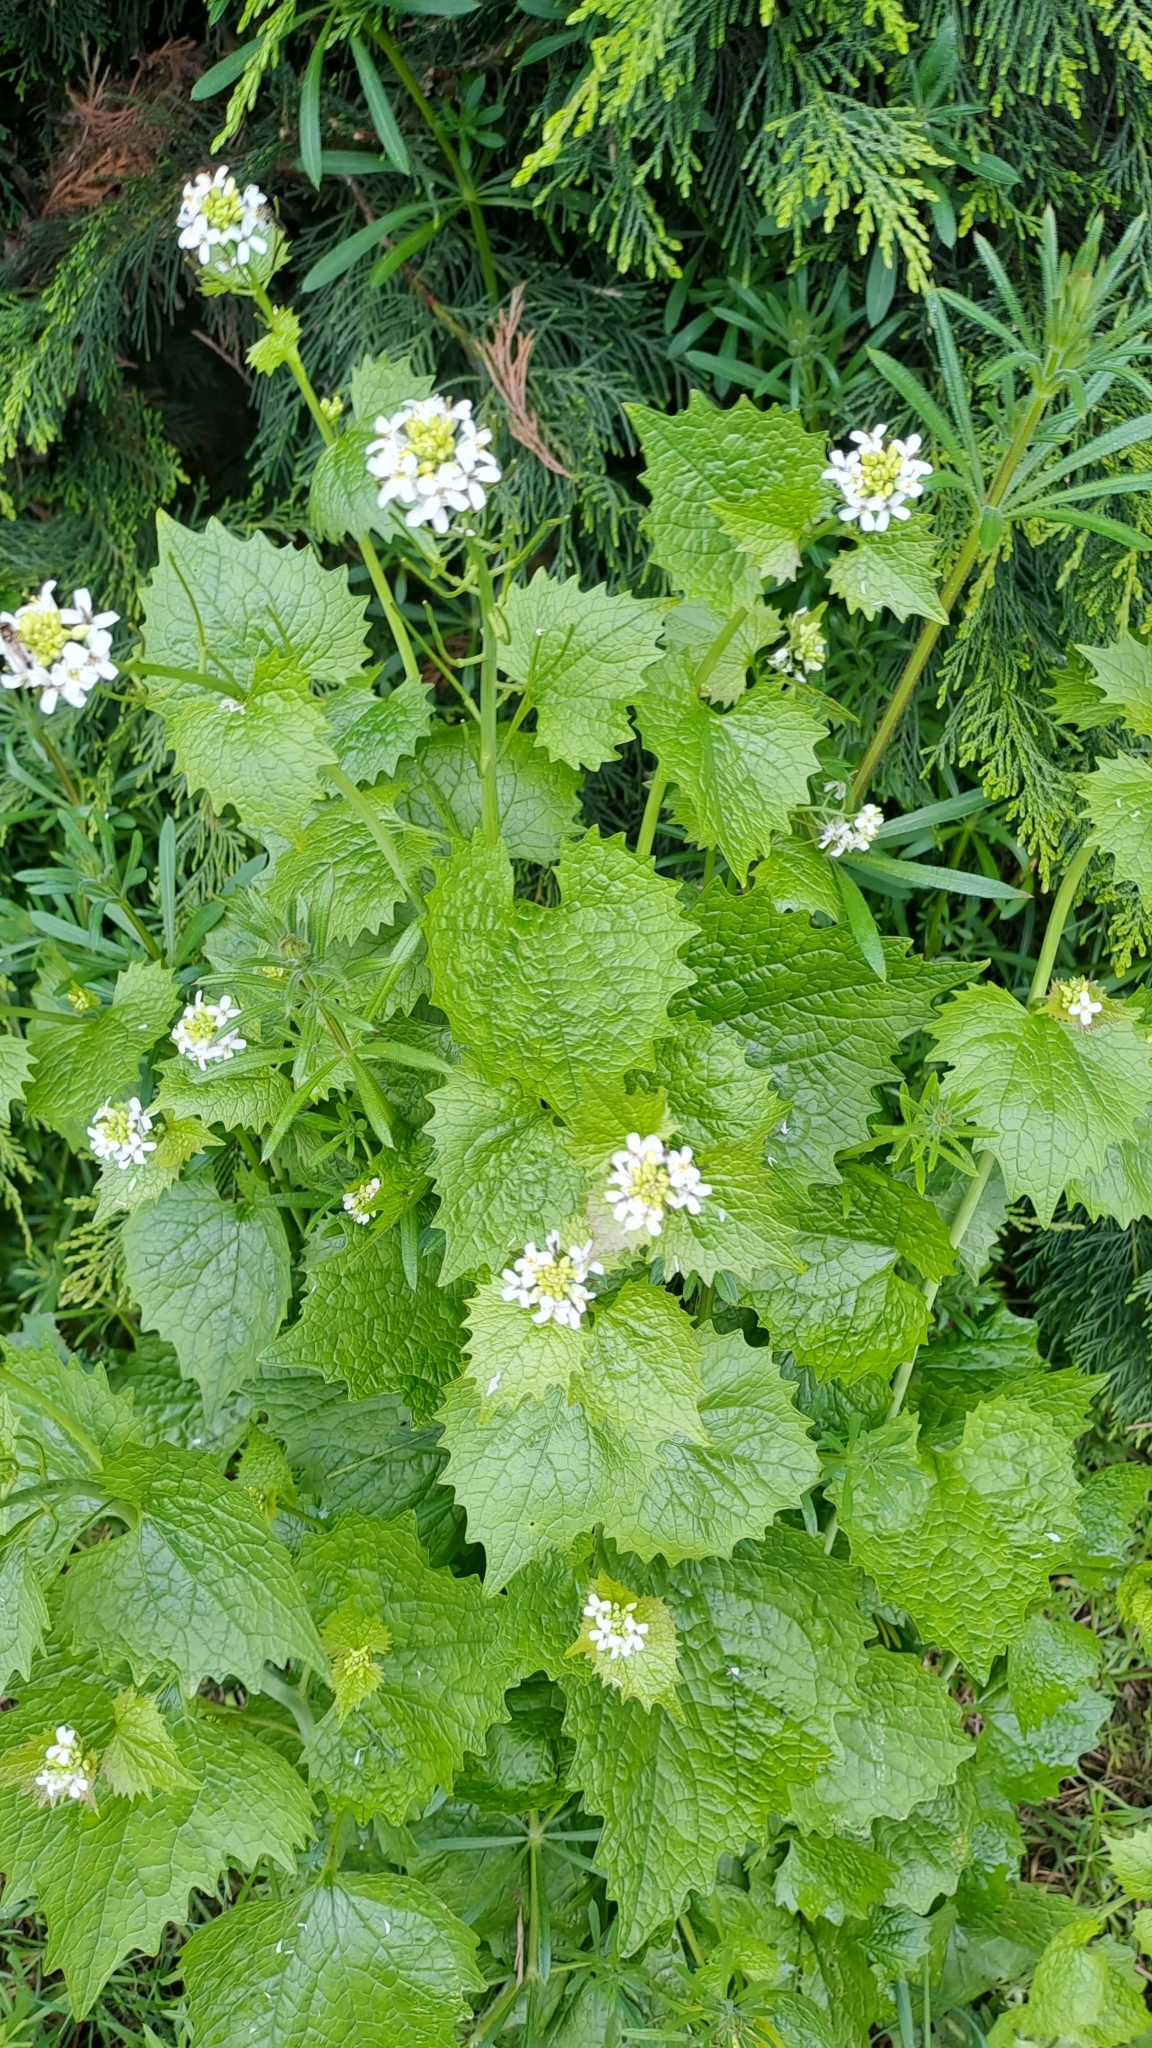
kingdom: Plantae
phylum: Tracheophyta
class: Magnoliopsida
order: Brassicales
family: Brassicaceae
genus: Alliaria
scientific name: Alliaria petiolata
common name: Garlic mustard
